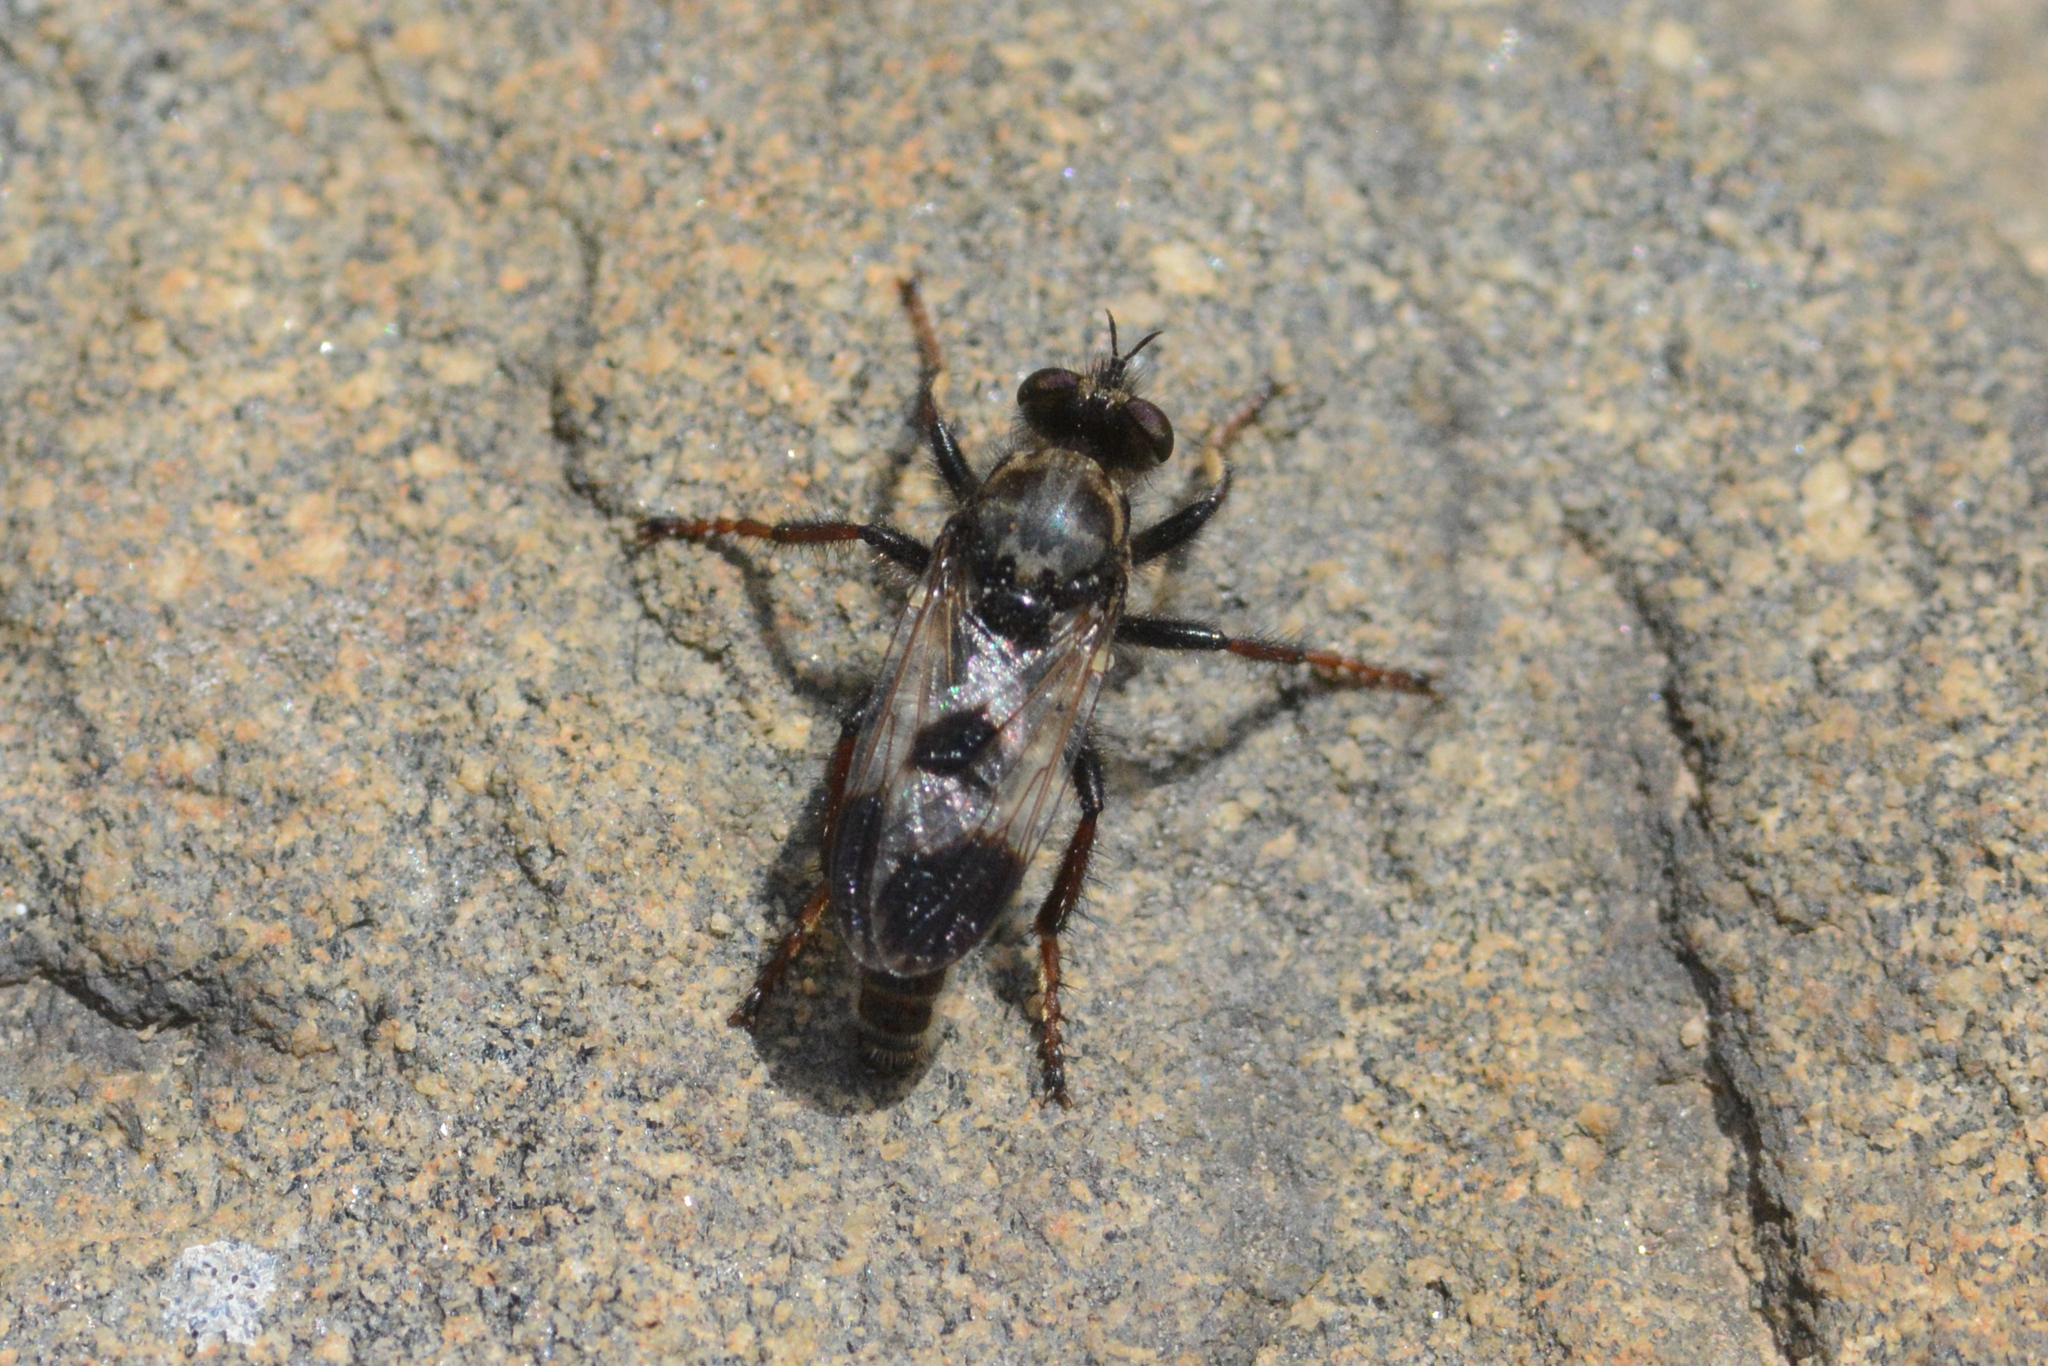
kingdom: Animalia
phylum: Arthropoda
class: Insecta
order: Diptera
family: Asilidae
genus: Cyrtopogon
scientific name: Cyrtopogon bimaculus
